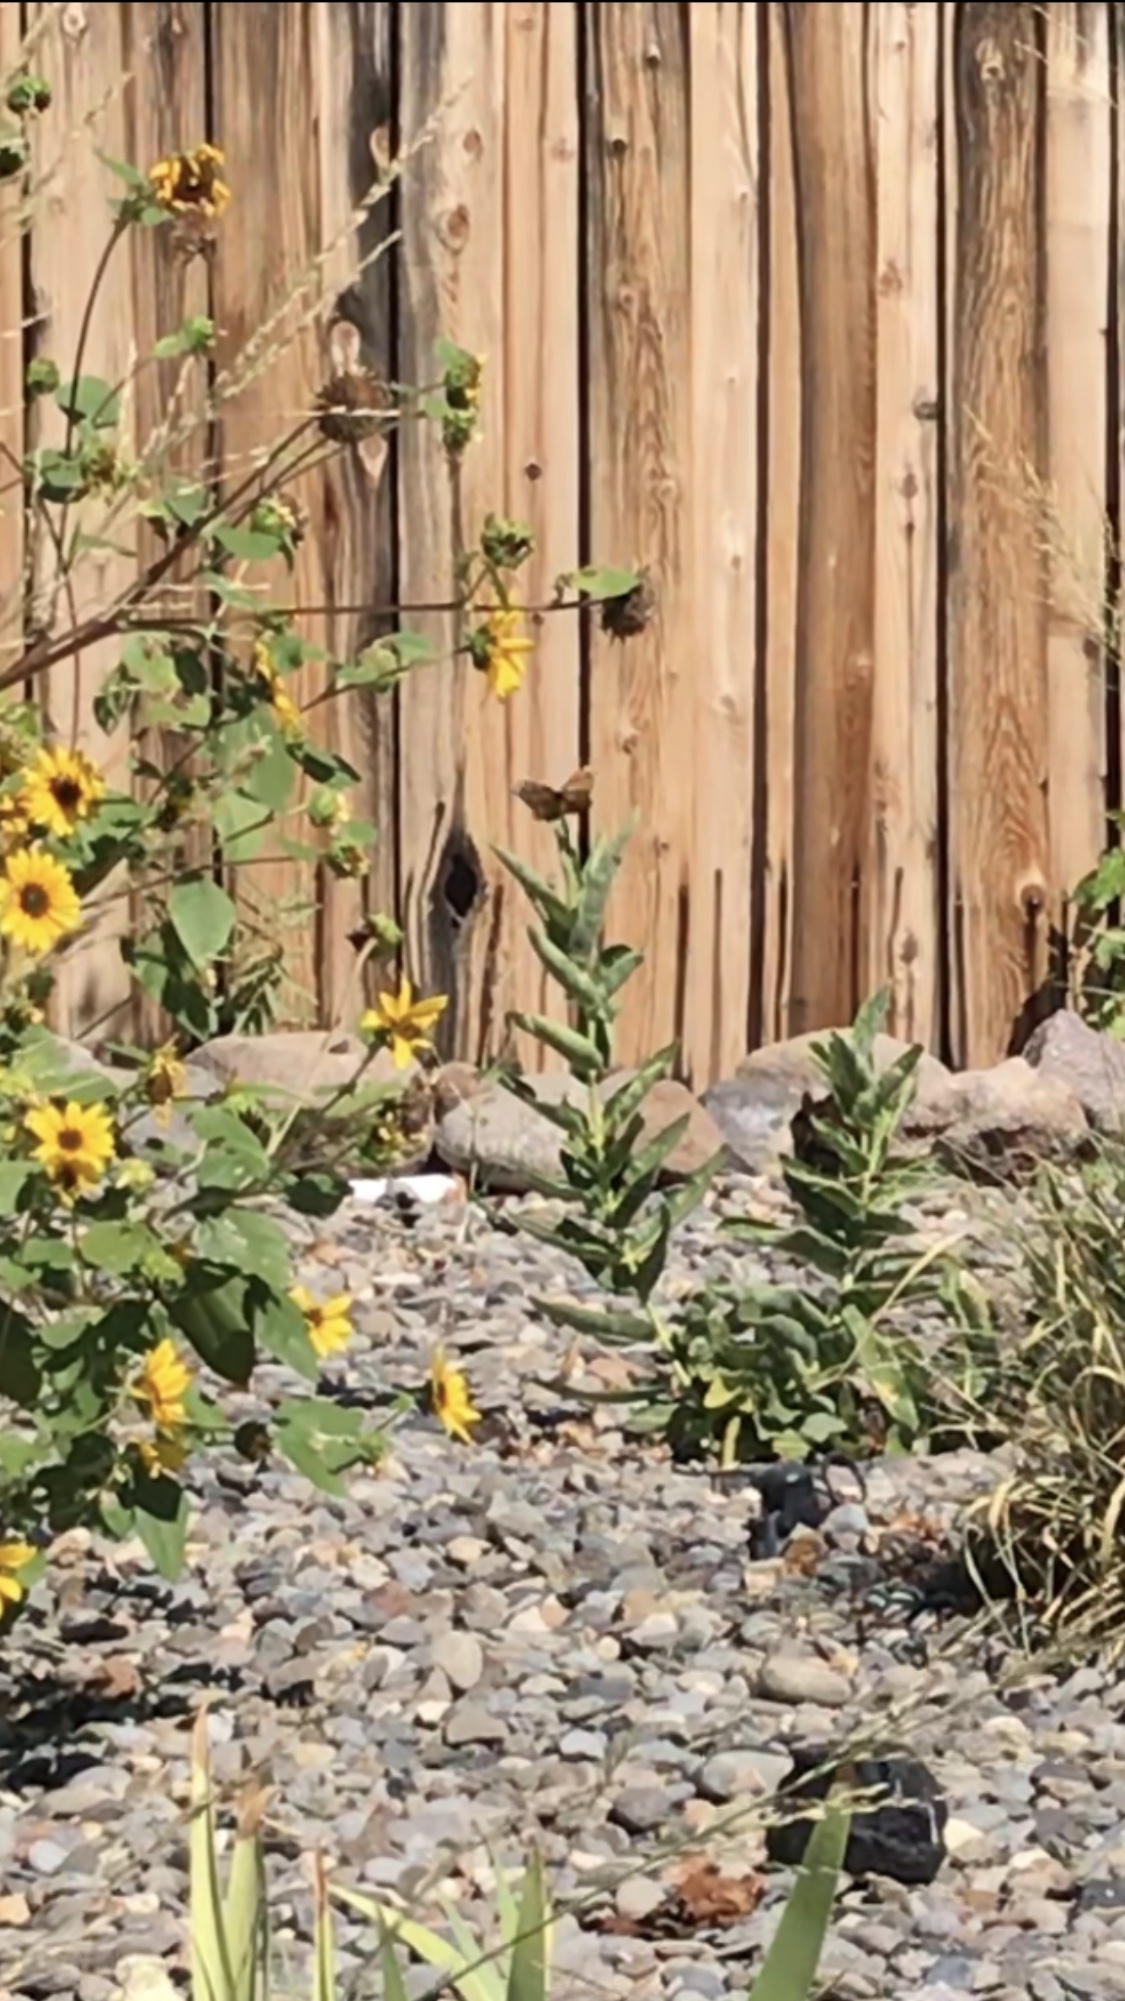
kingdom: Animalia
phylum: Arthropoda
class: Insecta
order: Lepidoptera
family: Nymphalidae
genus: Danaus
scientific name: Danaus plexippus
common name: Monarch
